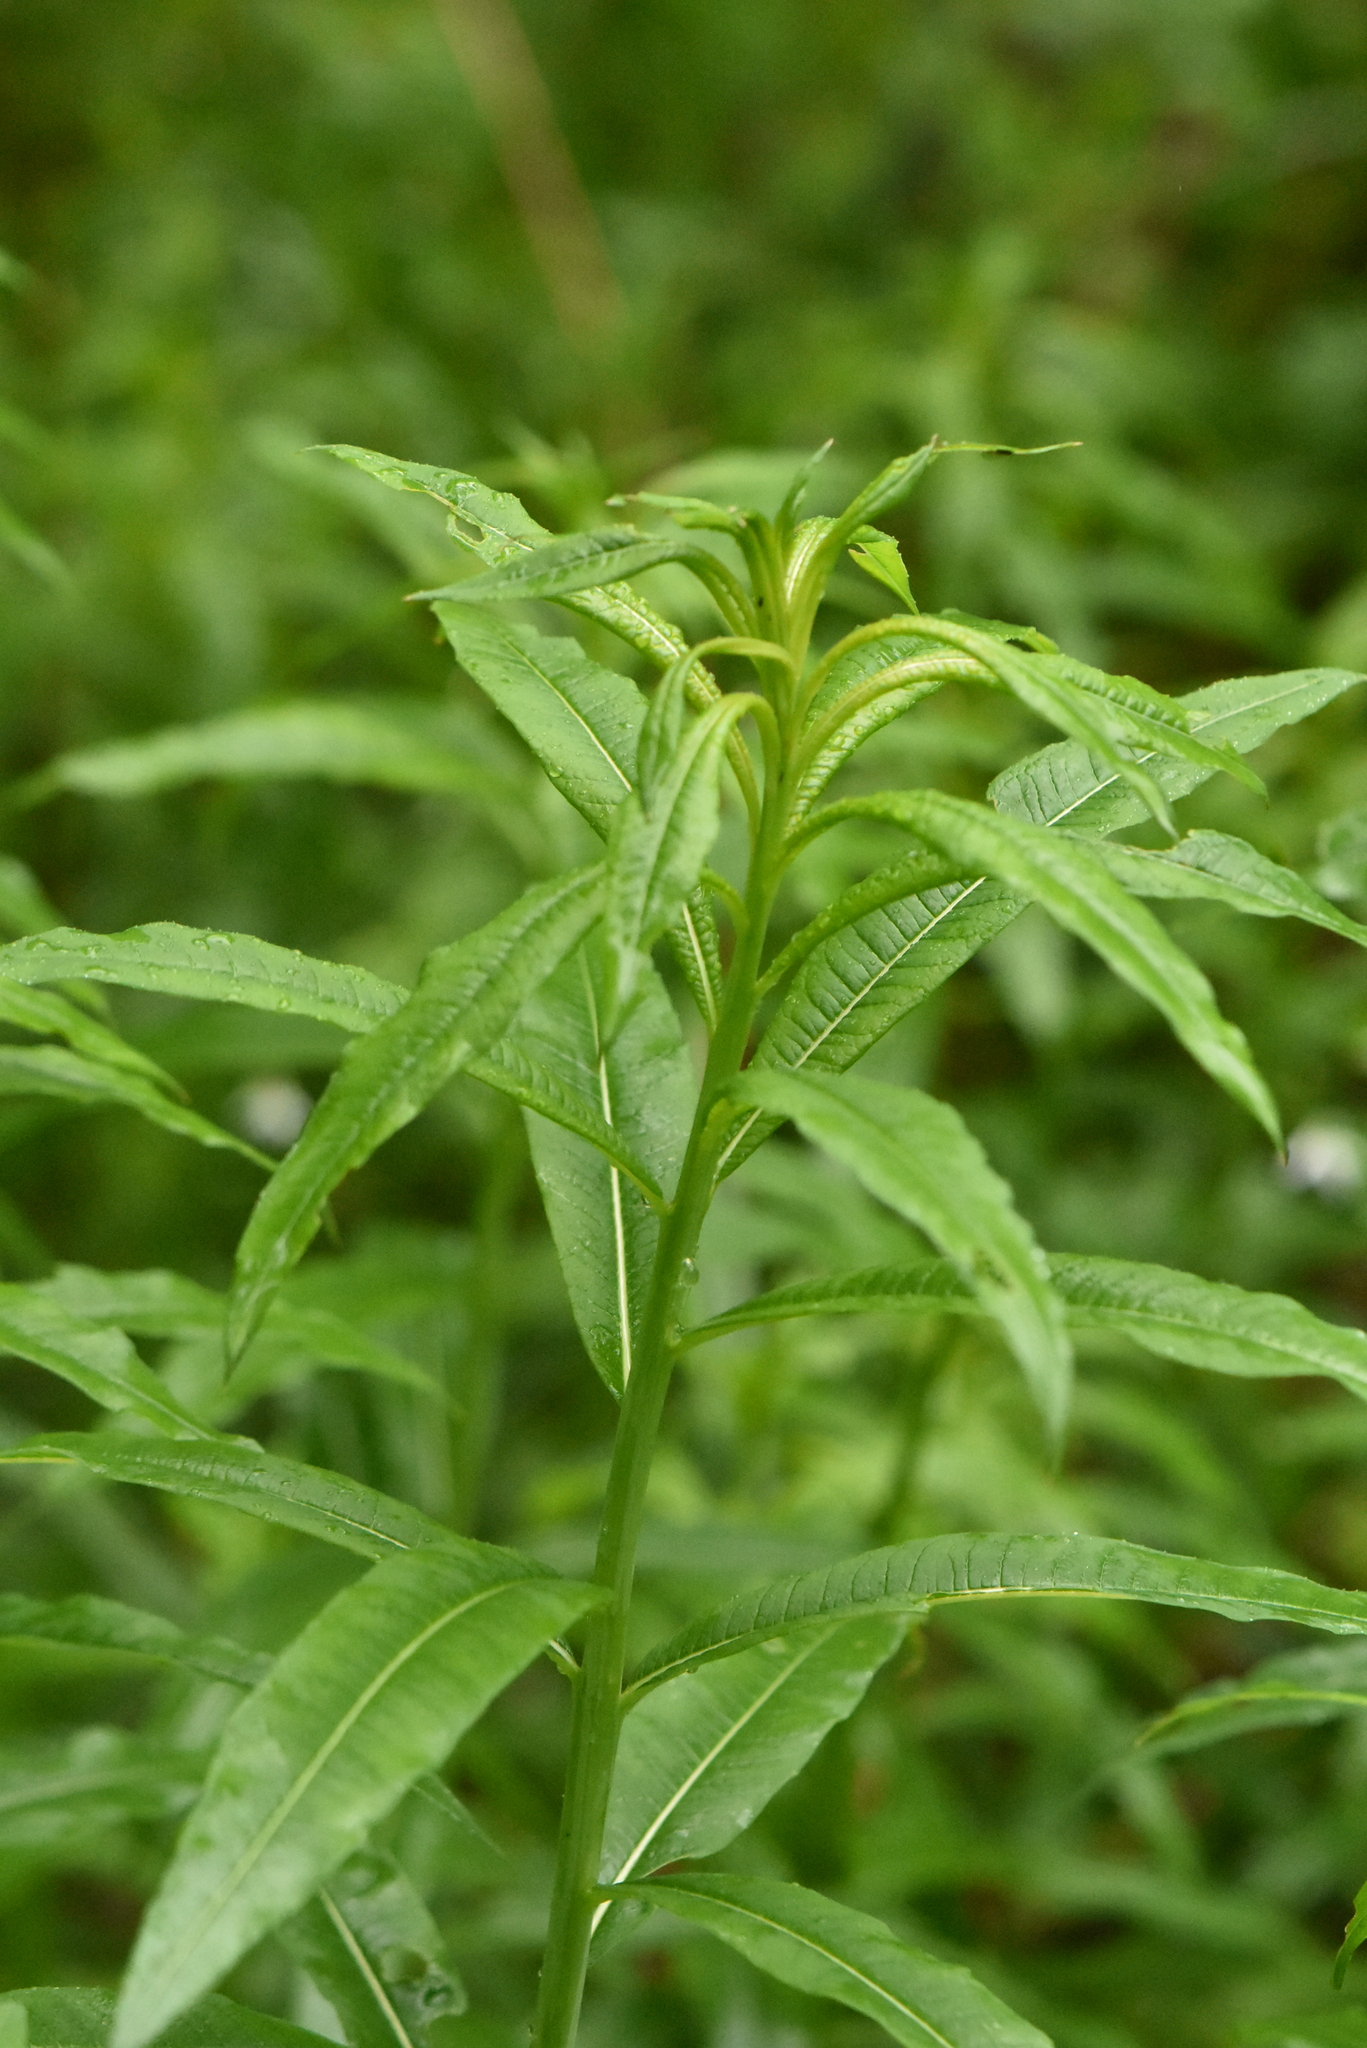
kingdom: Plantae
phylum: Tracheophyta
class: Magnoliopsida
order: Myrtales
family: Onagraceae
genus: Chamaenerion
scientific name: Chamaenerion angustifolium
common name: Fireweed
